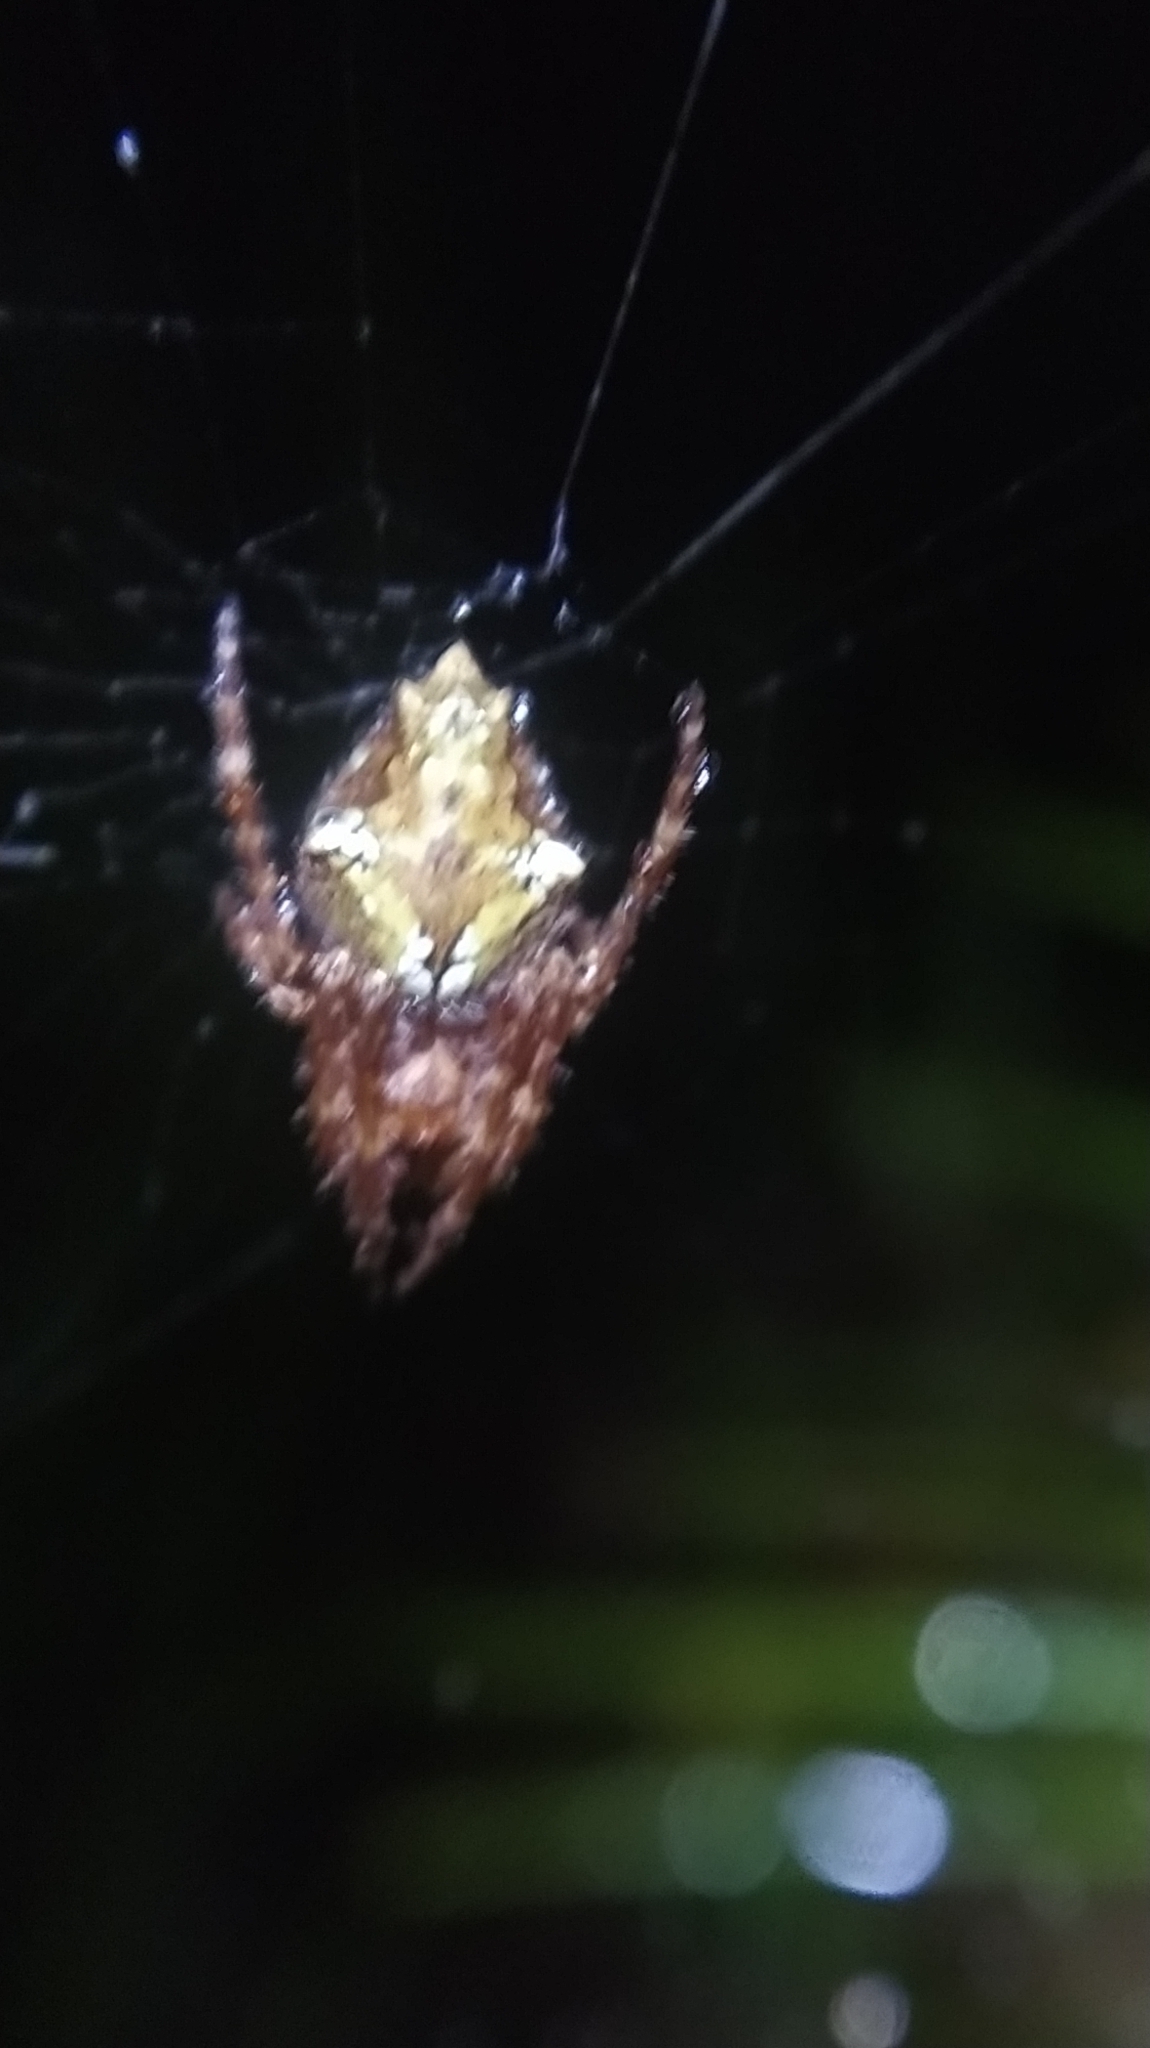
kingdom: Animalia
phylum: Arthropoda
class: Arachnida
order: Araneae
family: Araneidae
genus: Eriophora
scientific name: Eriophora pustulosa
